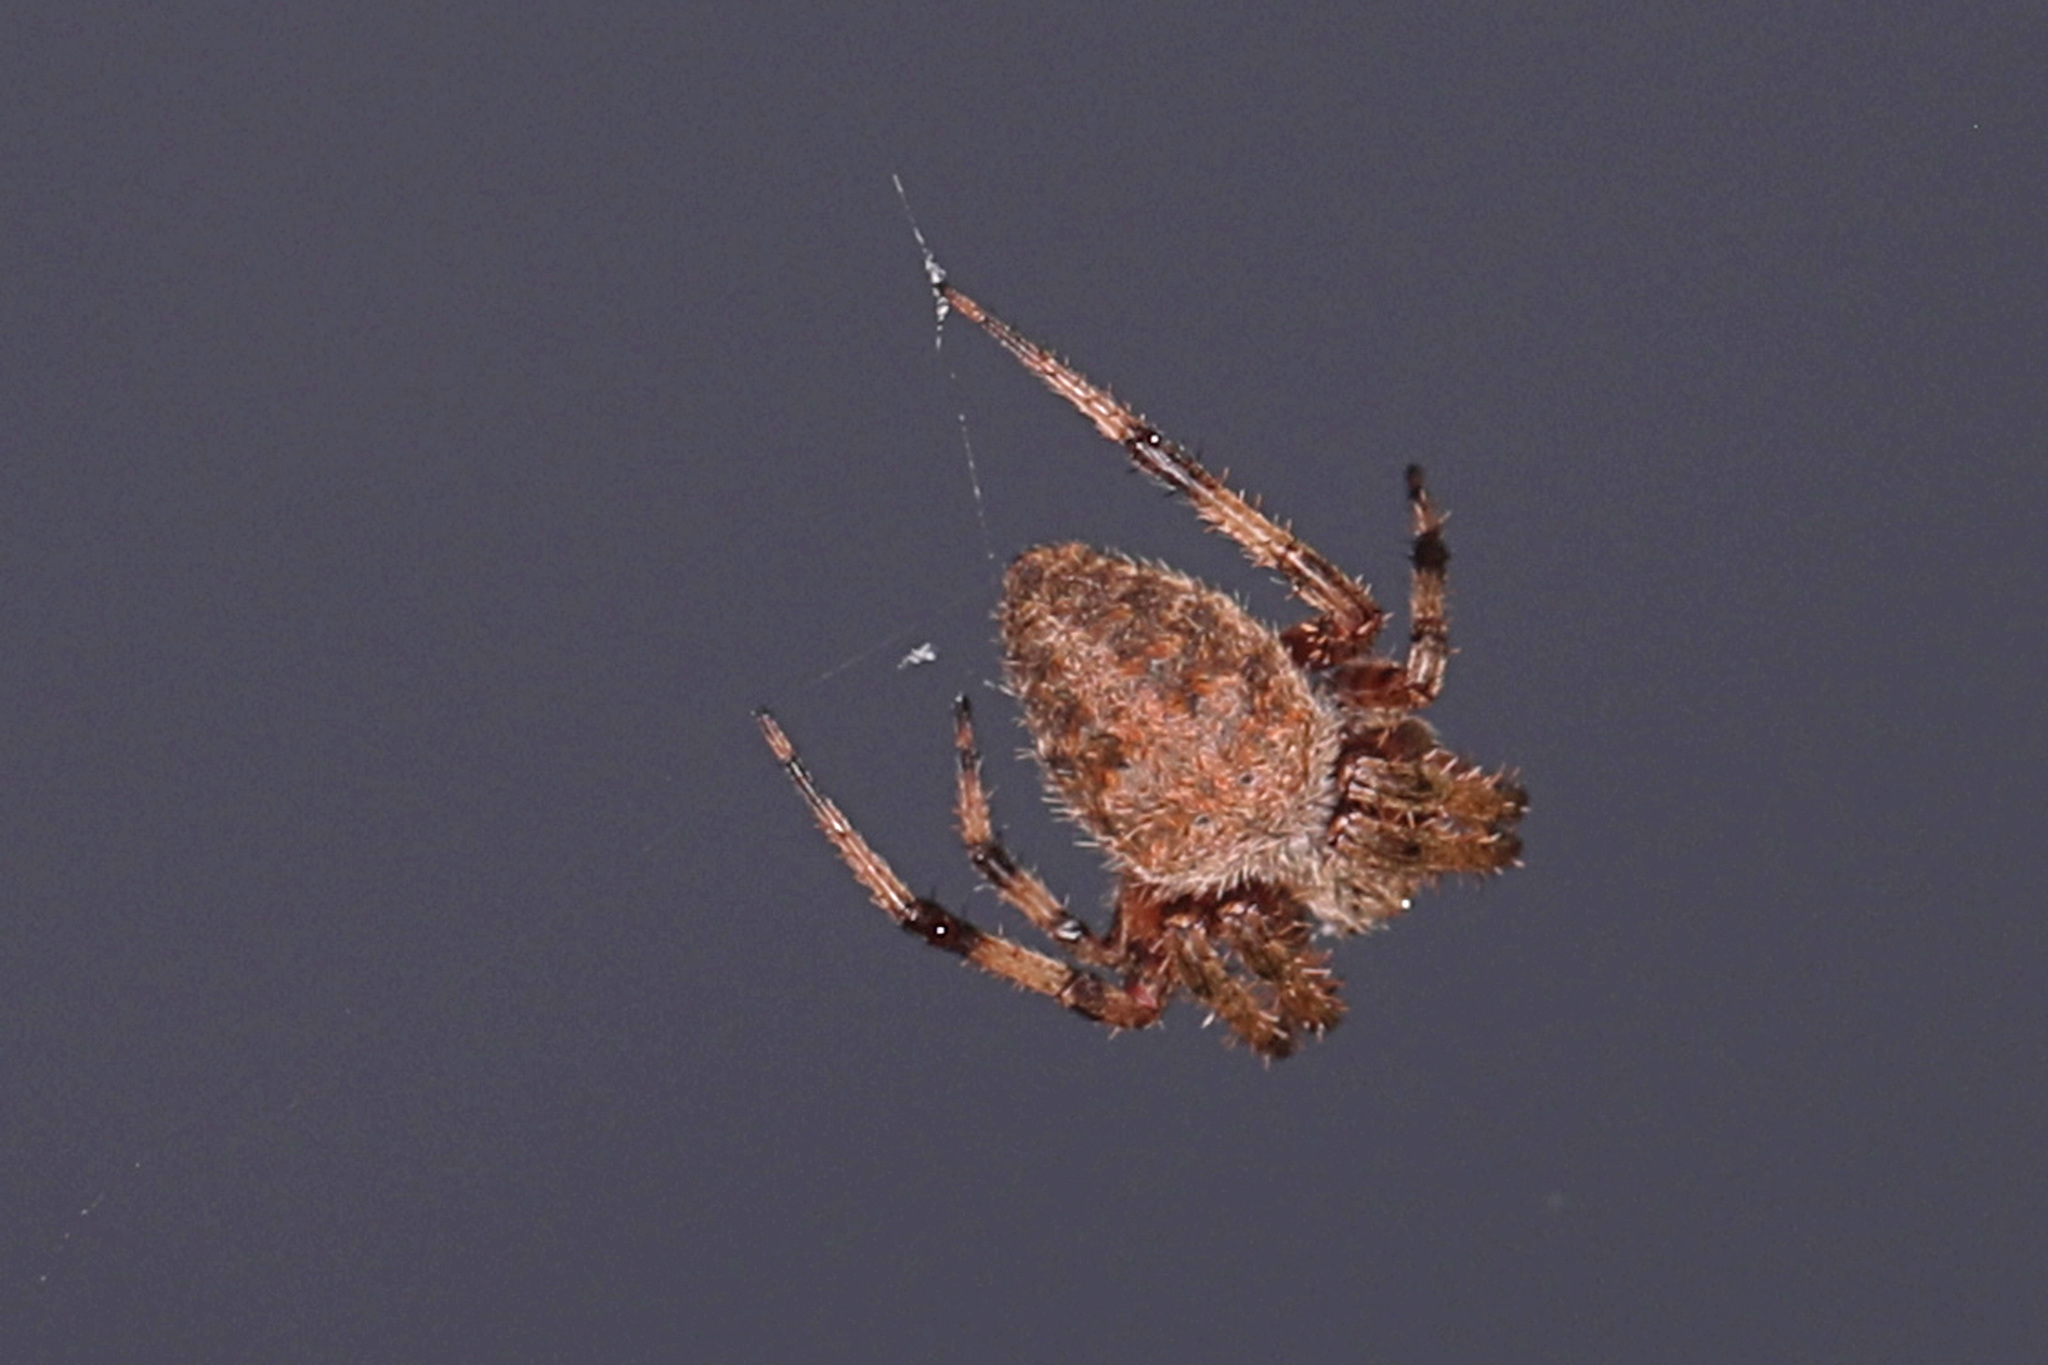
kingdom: Animalia
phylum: Arthropoda
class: Arachnida
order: Araneae
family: Araneidae
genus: Neoscona
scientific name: Neoscona crucifera
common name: Spotted orbweaver
